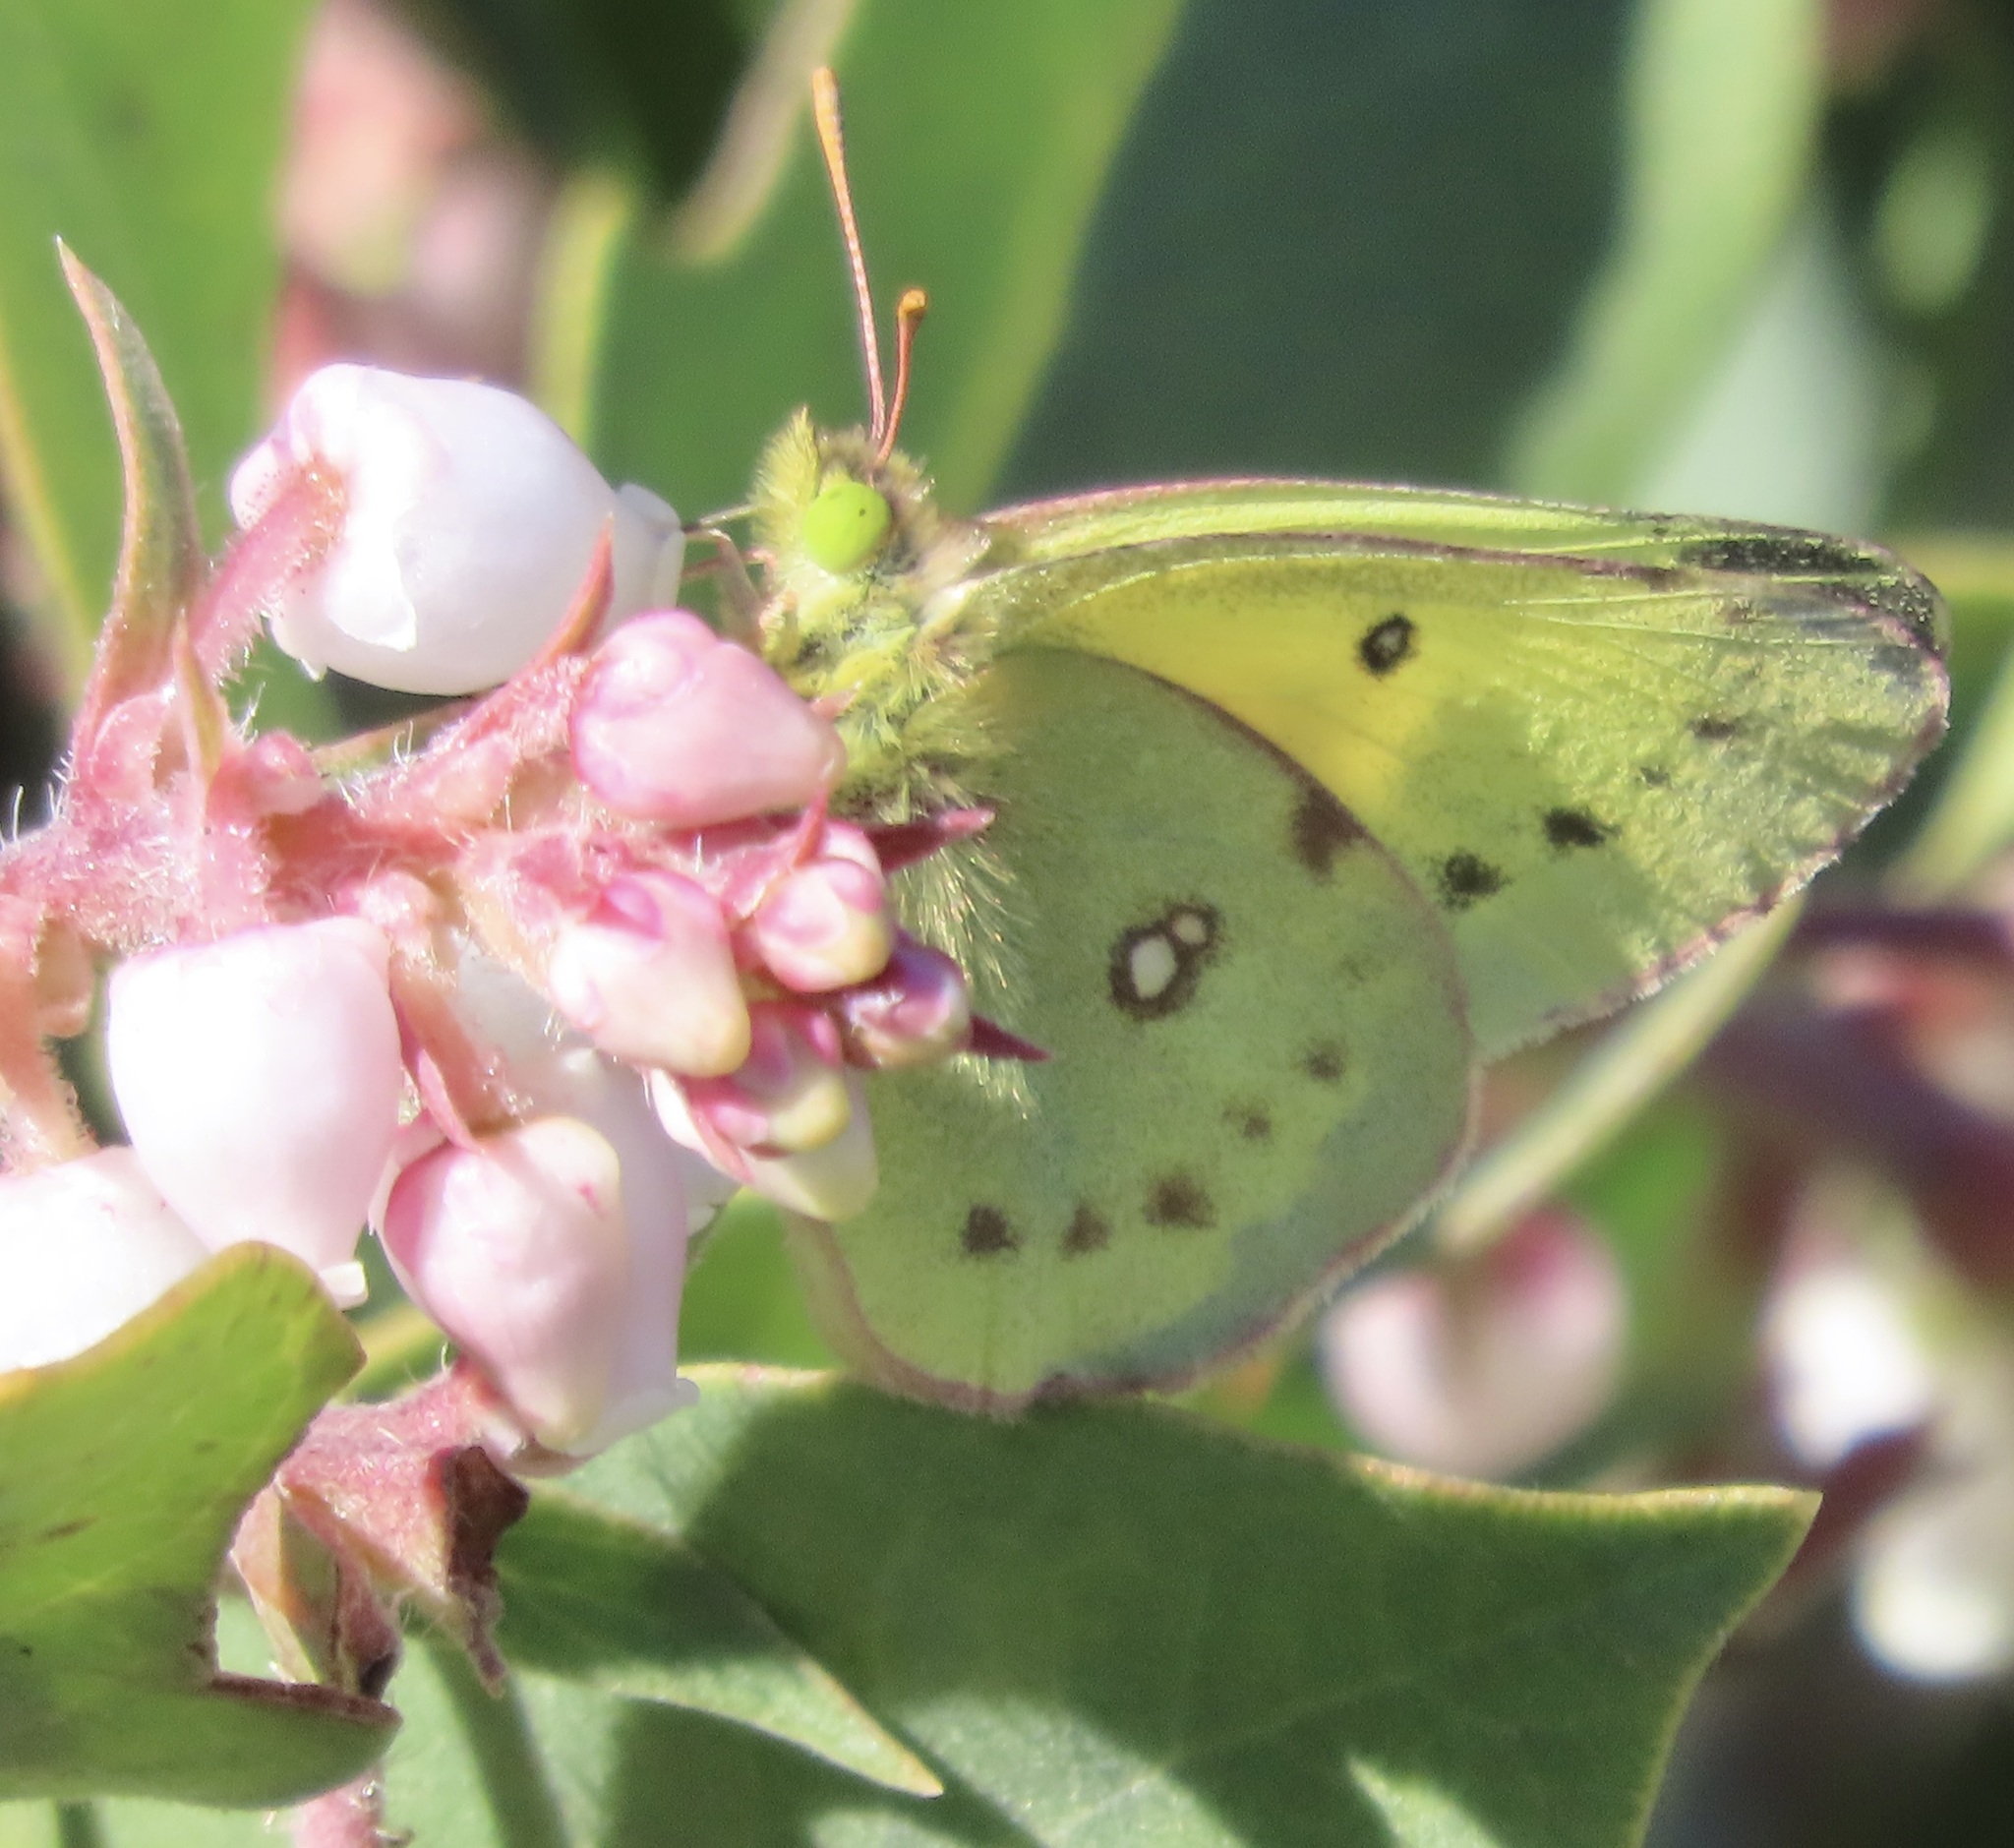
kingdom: Animalia
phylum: Arthropoda
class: Insecta
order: Lepidoptera
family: Pieridae
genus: Colias
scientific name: Colias eurytheme
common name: Alfalfa butterfly
